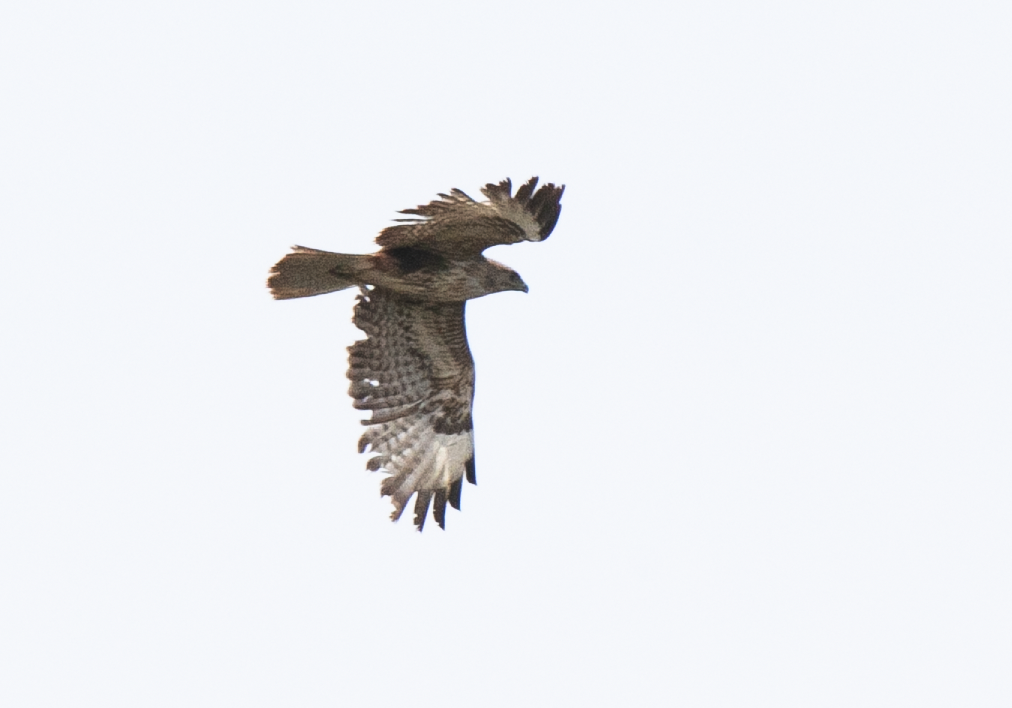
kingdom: Animalia
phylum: Chordata
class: Aves
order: Accipitriformes
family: Accipitridae
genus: Buteo
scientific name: Buteo buteo
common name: Common buzzard
